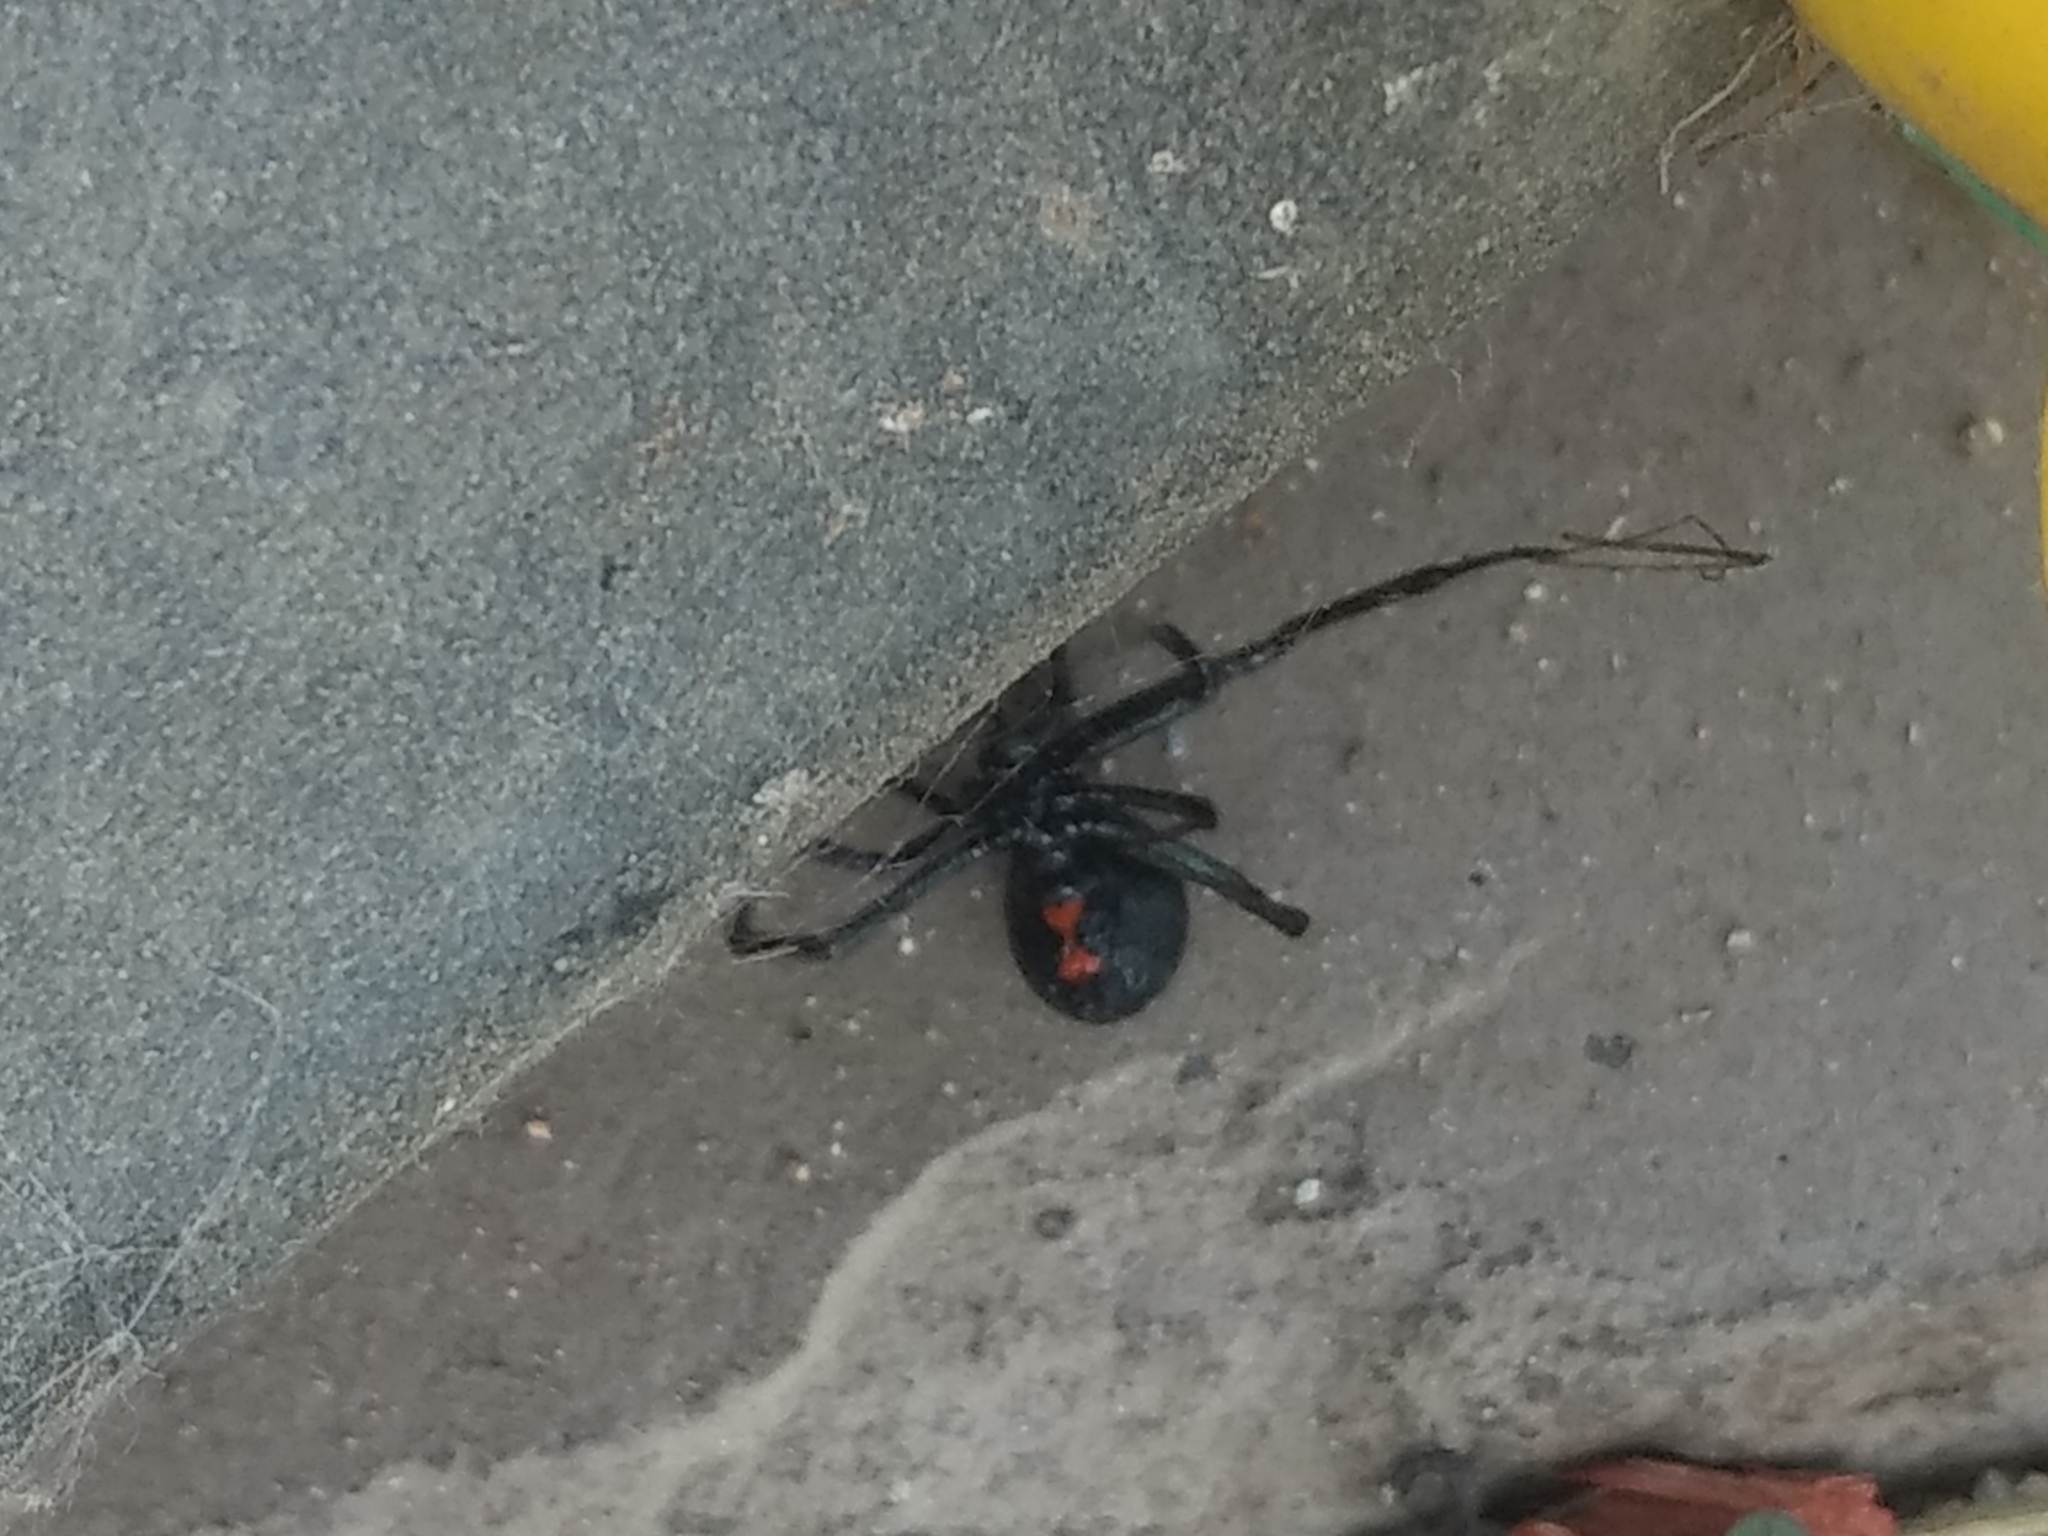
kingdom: Animalia
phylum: Arthropoda
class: Arachnida
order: Araneae
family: Theridiidae
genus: Latrodectus
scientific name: Latrodectus hesperus
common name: Western black widow
